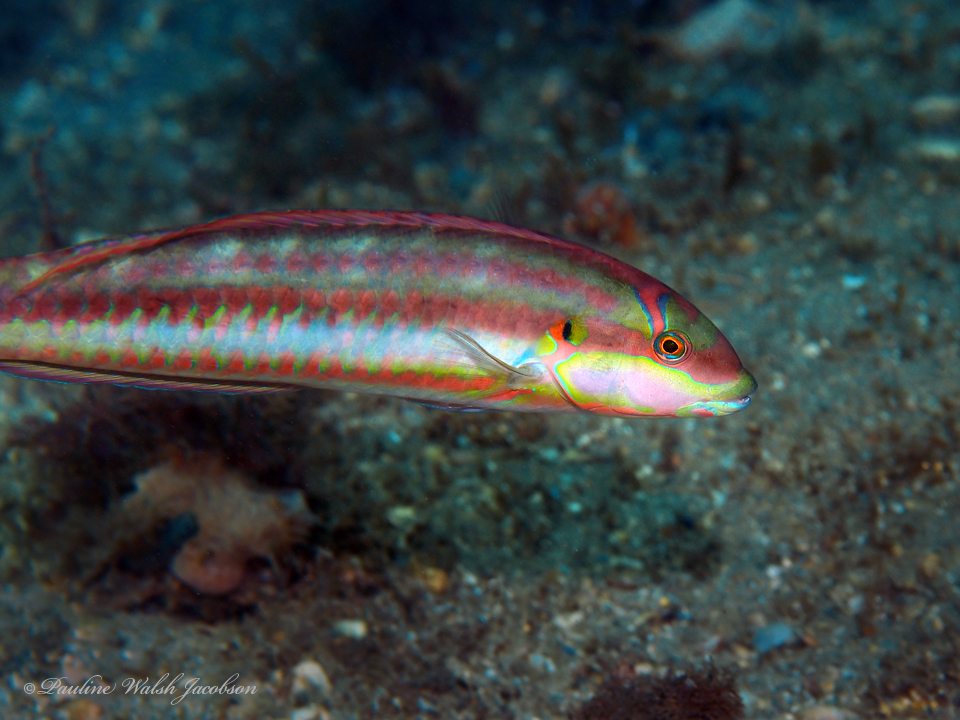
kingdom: Animalia
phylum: Chordata
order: Perciformes
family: Labridae
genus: Halichoeres
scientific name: Halichoeres bivittatus
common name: Slippery dick
